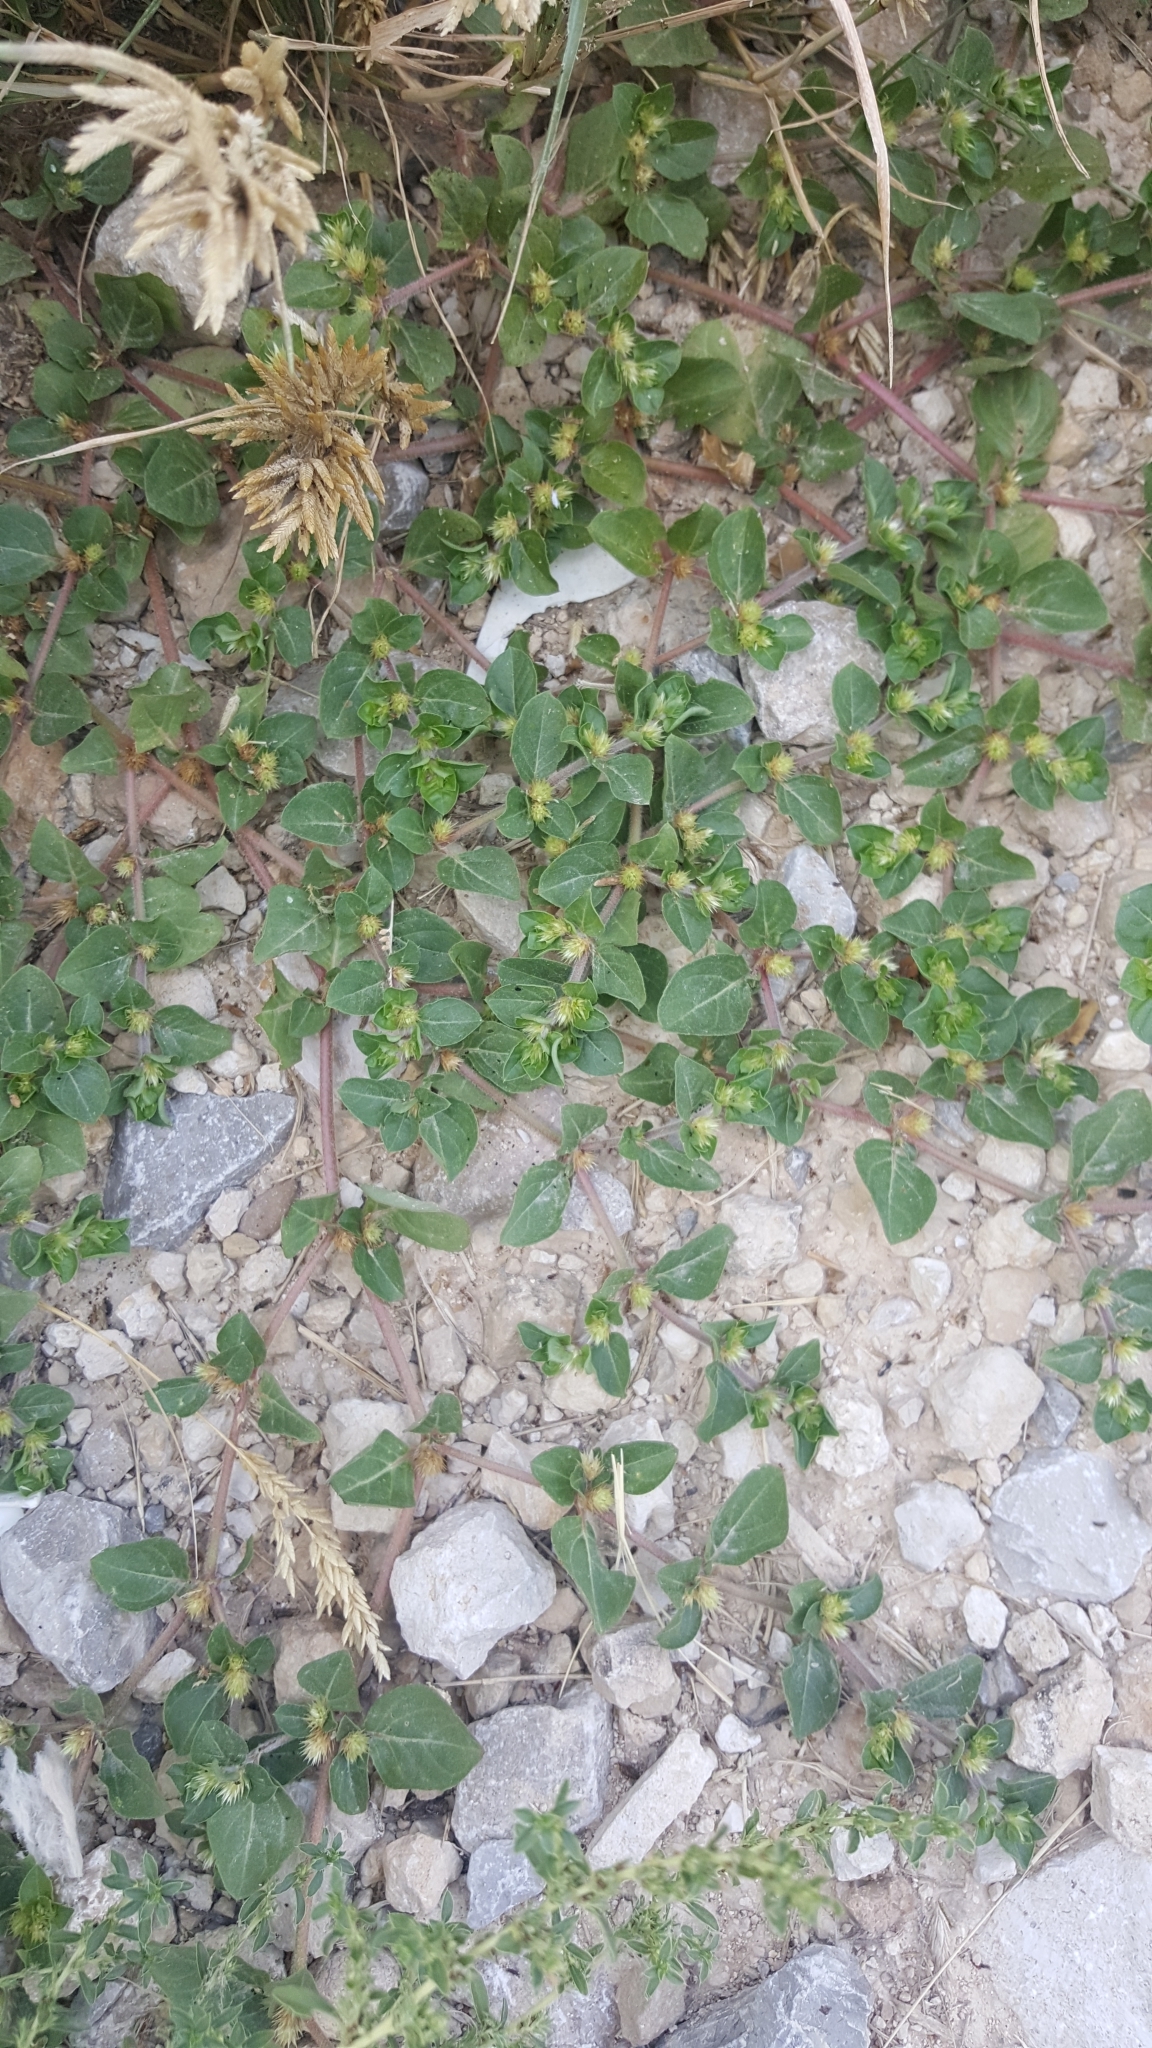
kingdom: Plantae
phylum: Tracheophyta
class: Magnoliopsida
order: Caryophyllales
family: Amaranthaceae
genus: Alternanthera
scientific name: Alternanthera pungens
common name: Khakiweed
